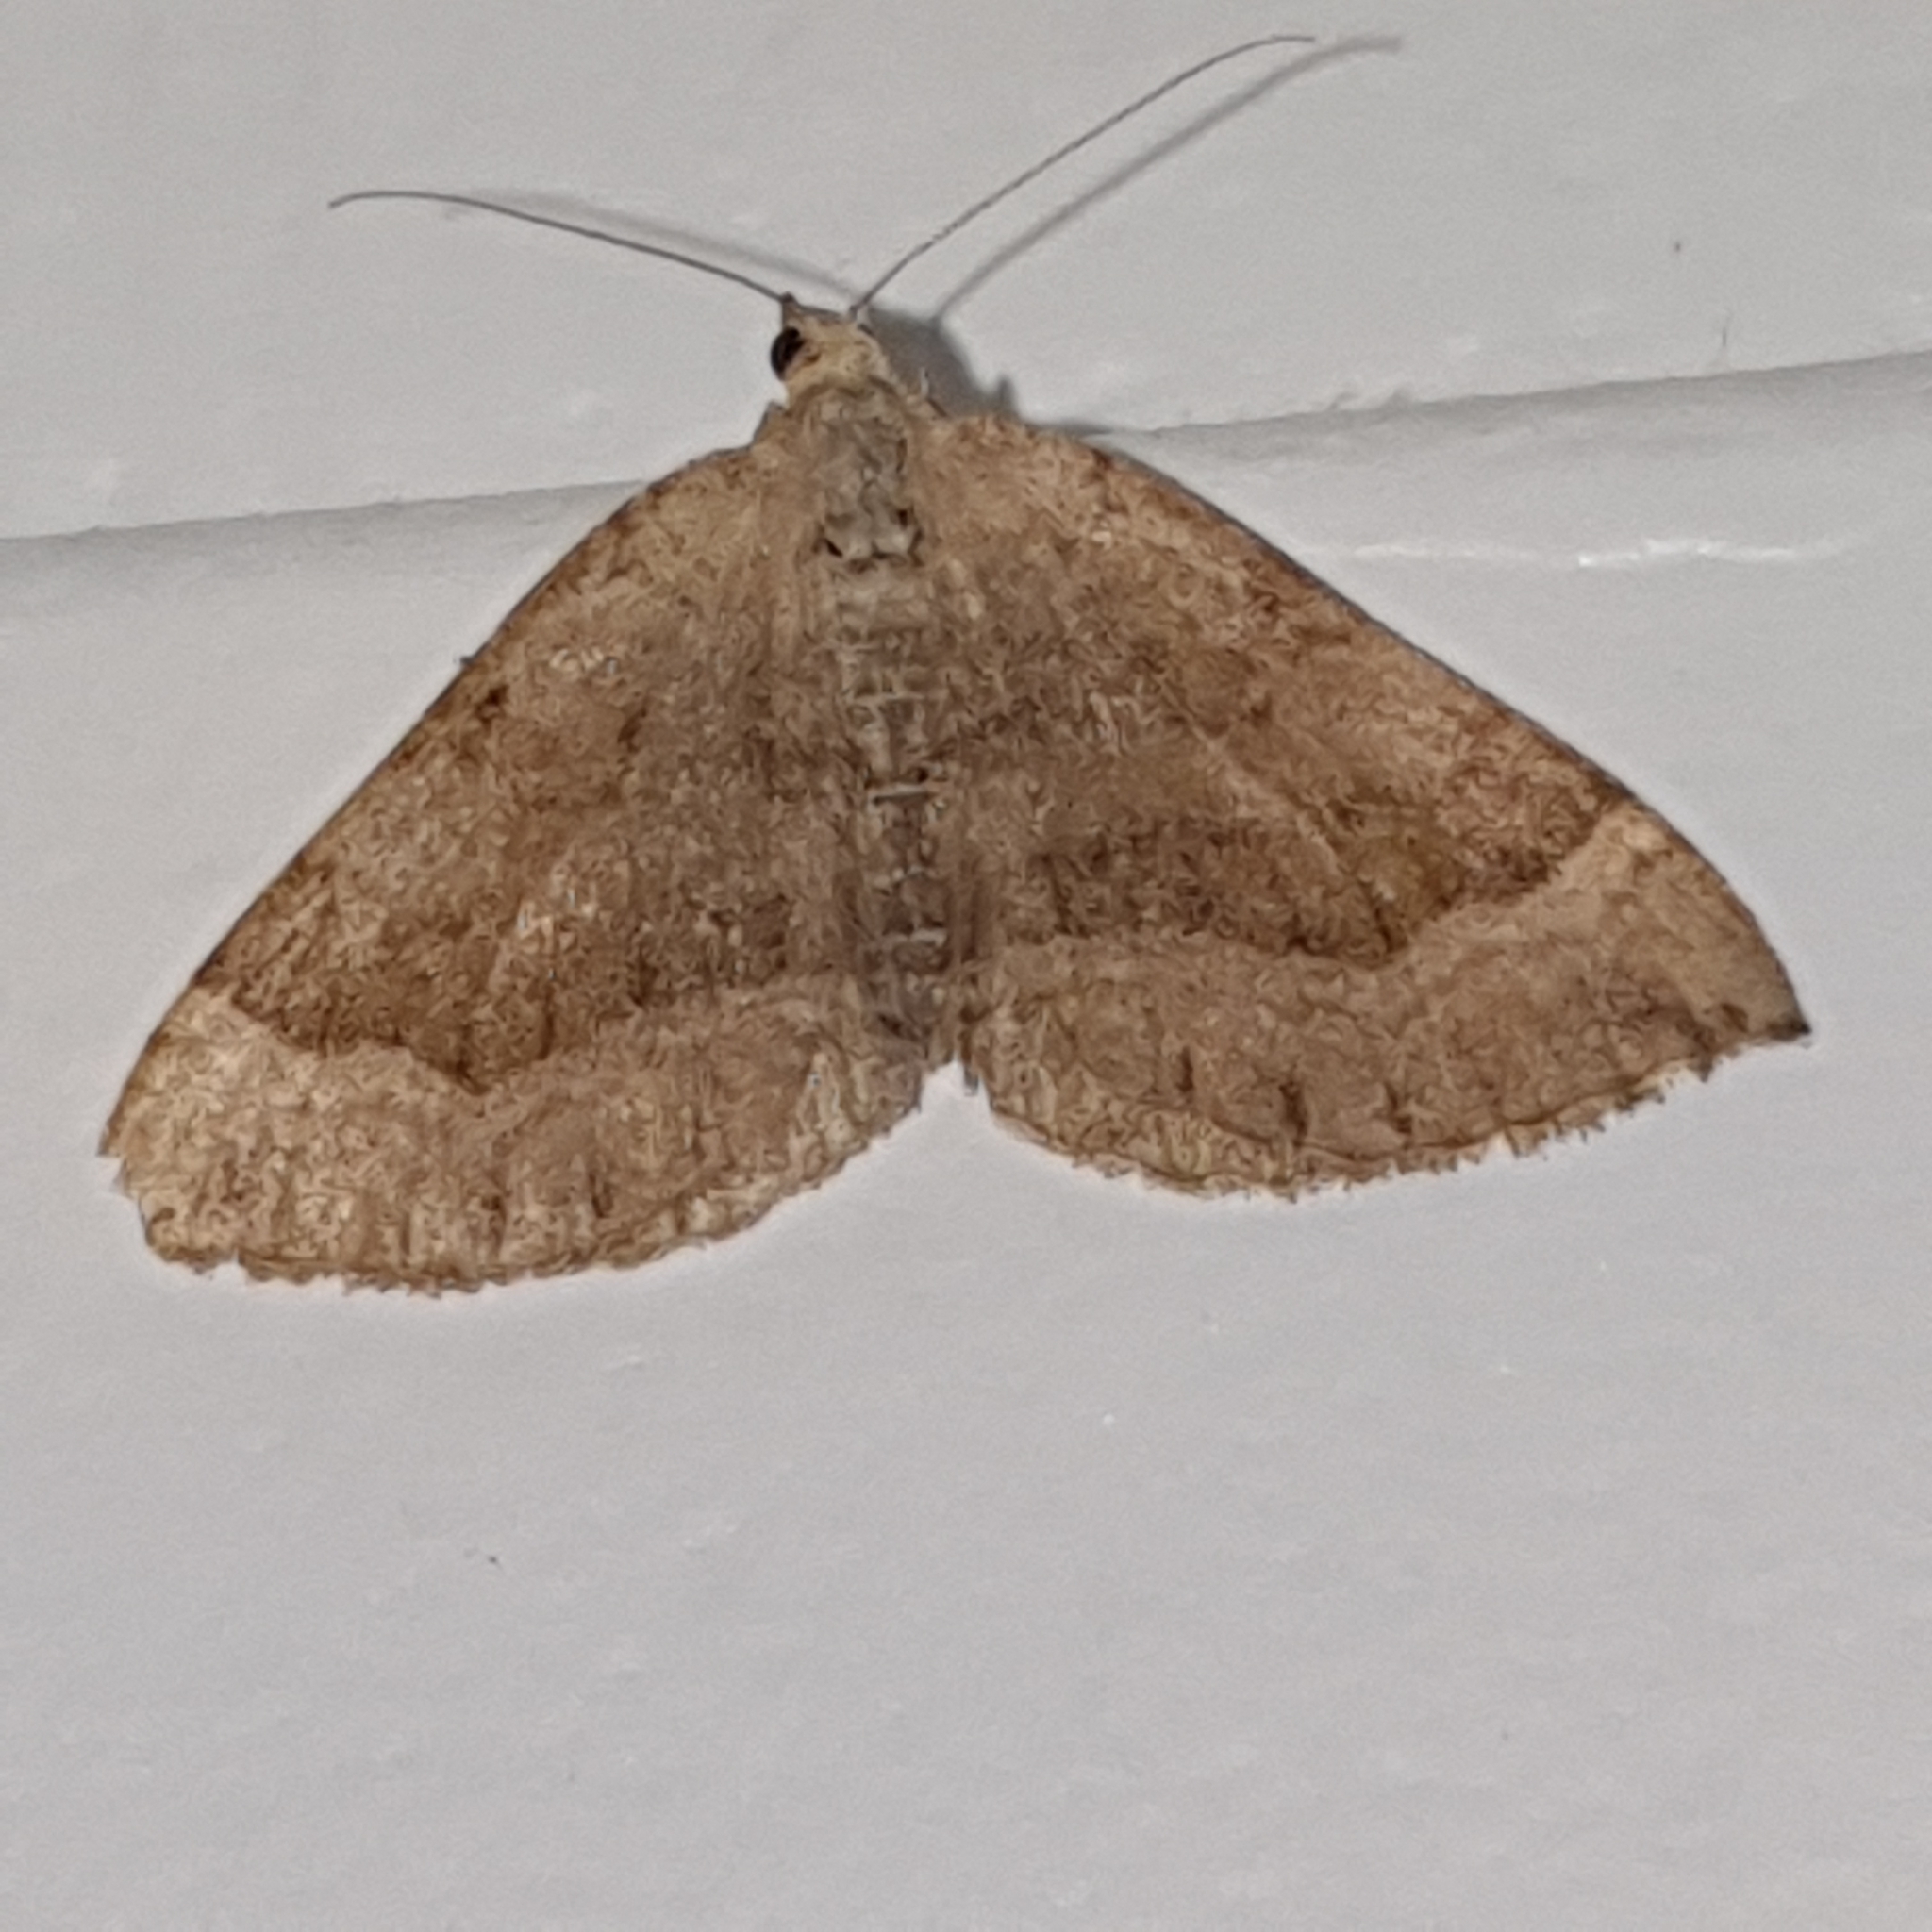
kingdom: Animalia
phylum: Arthropoda
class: Insecta
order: Lepidoptera
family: Geometridae
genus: Scotopteryx
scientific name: Scotopteryx chenopodiata
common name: Shaded broad-bar
